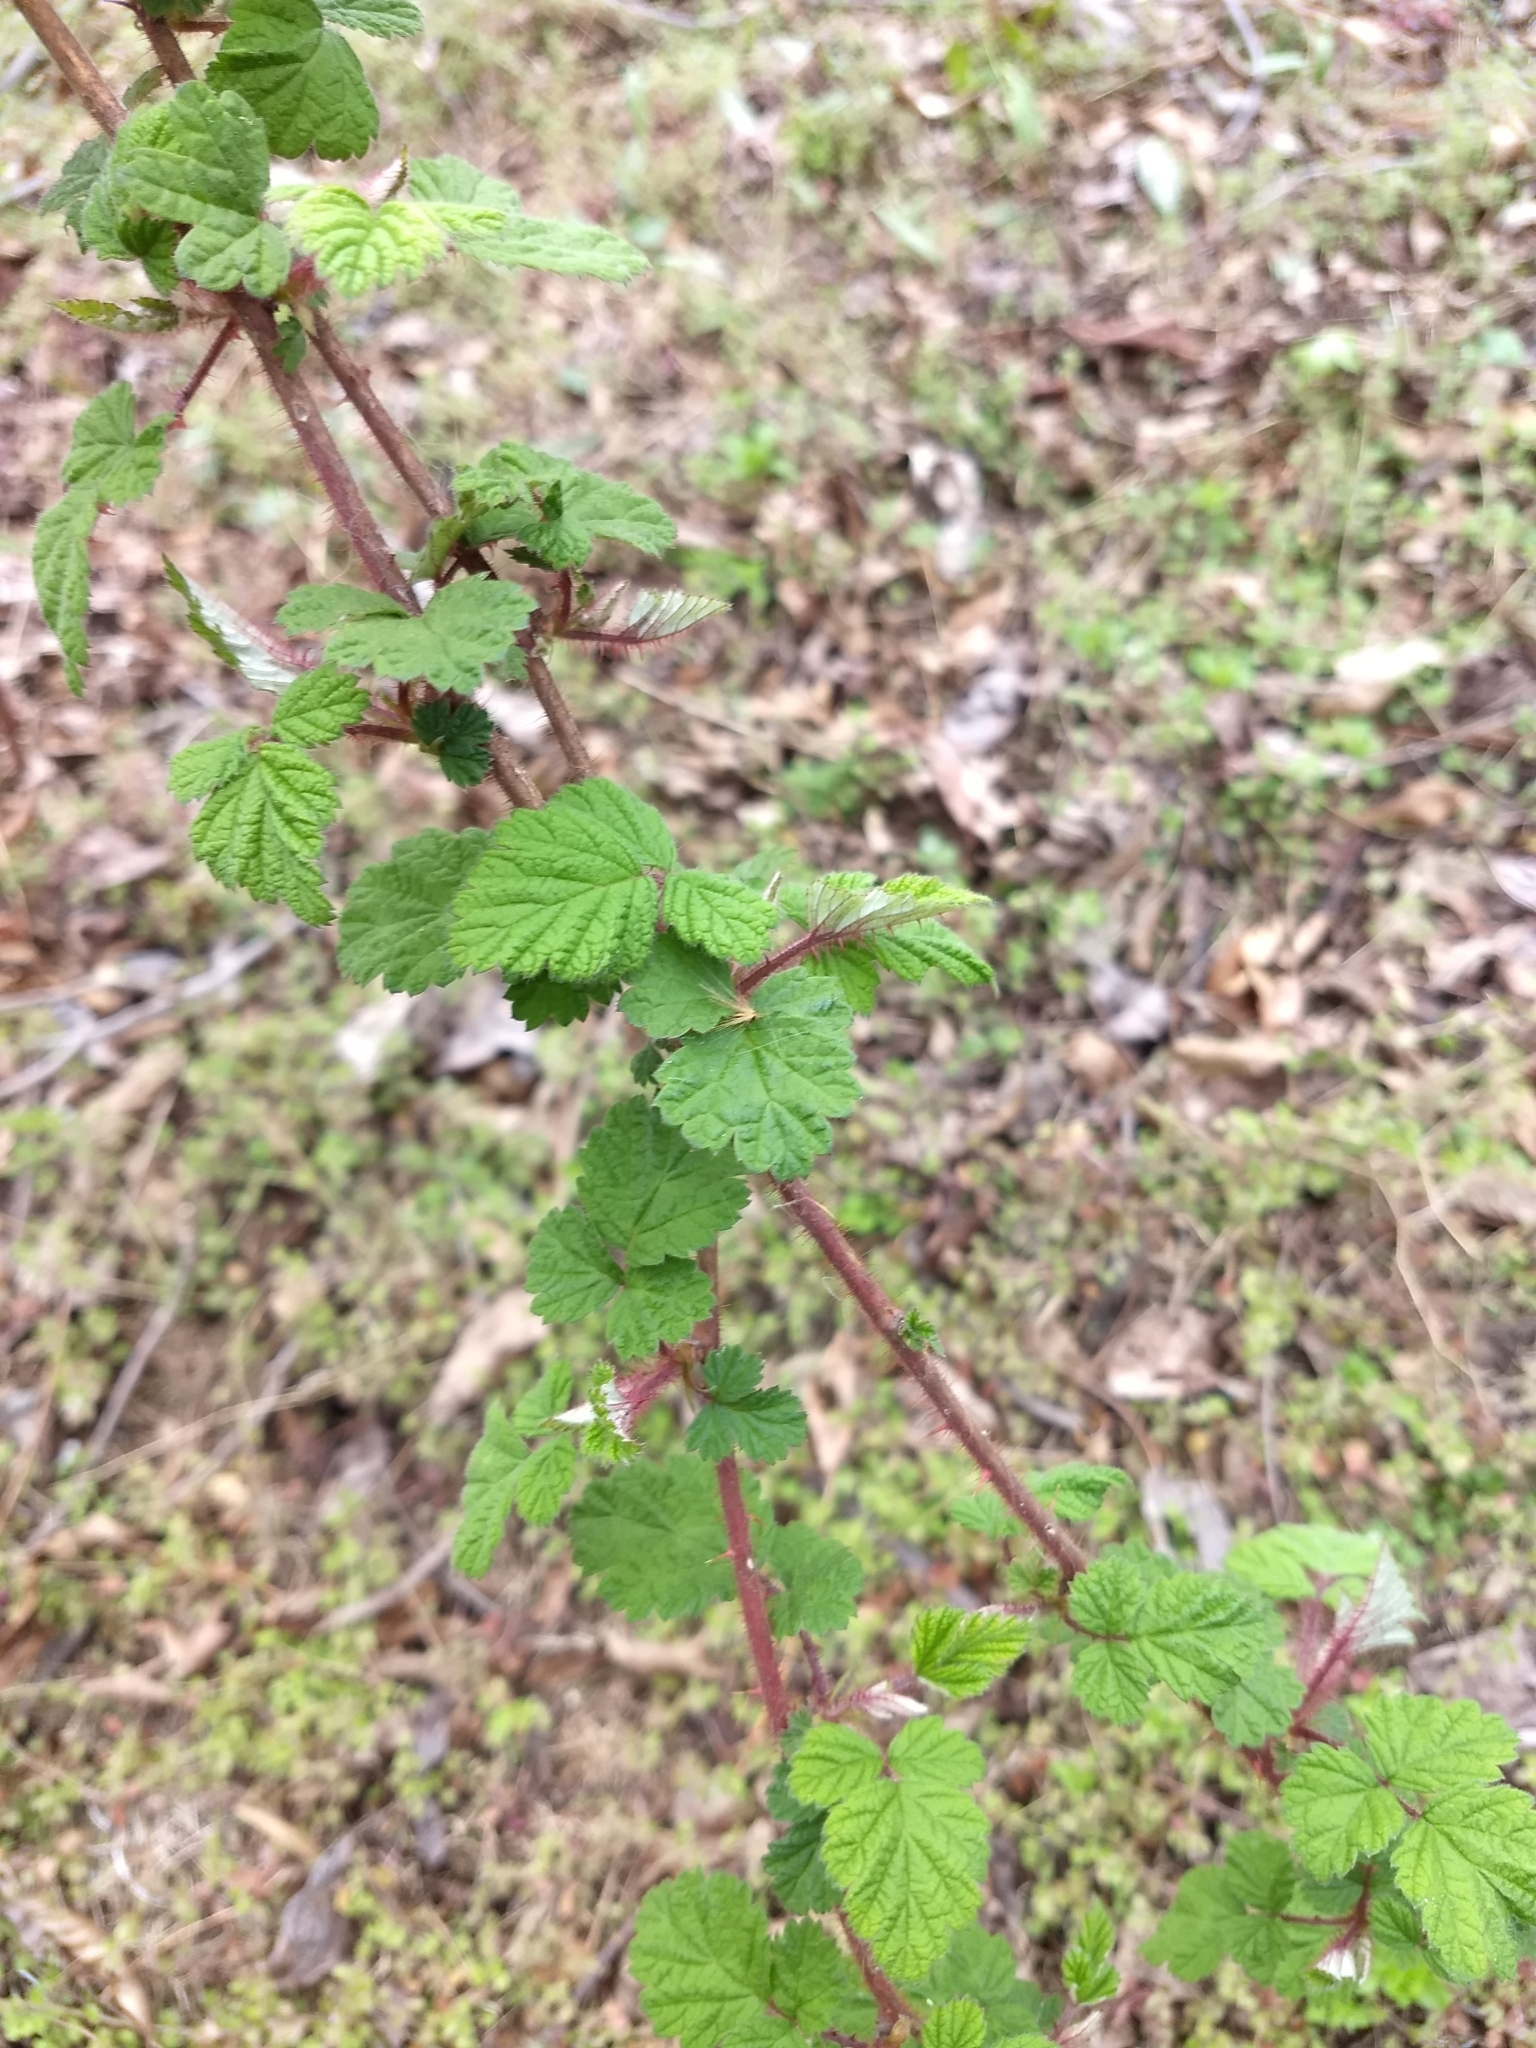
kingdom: Plantae
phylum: Tracheophyta
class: Magnoliopsida
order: Rosales
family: Rosaceae
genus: Rubus
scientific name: Rubus phoenicolasius
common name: Japanese wineberry
